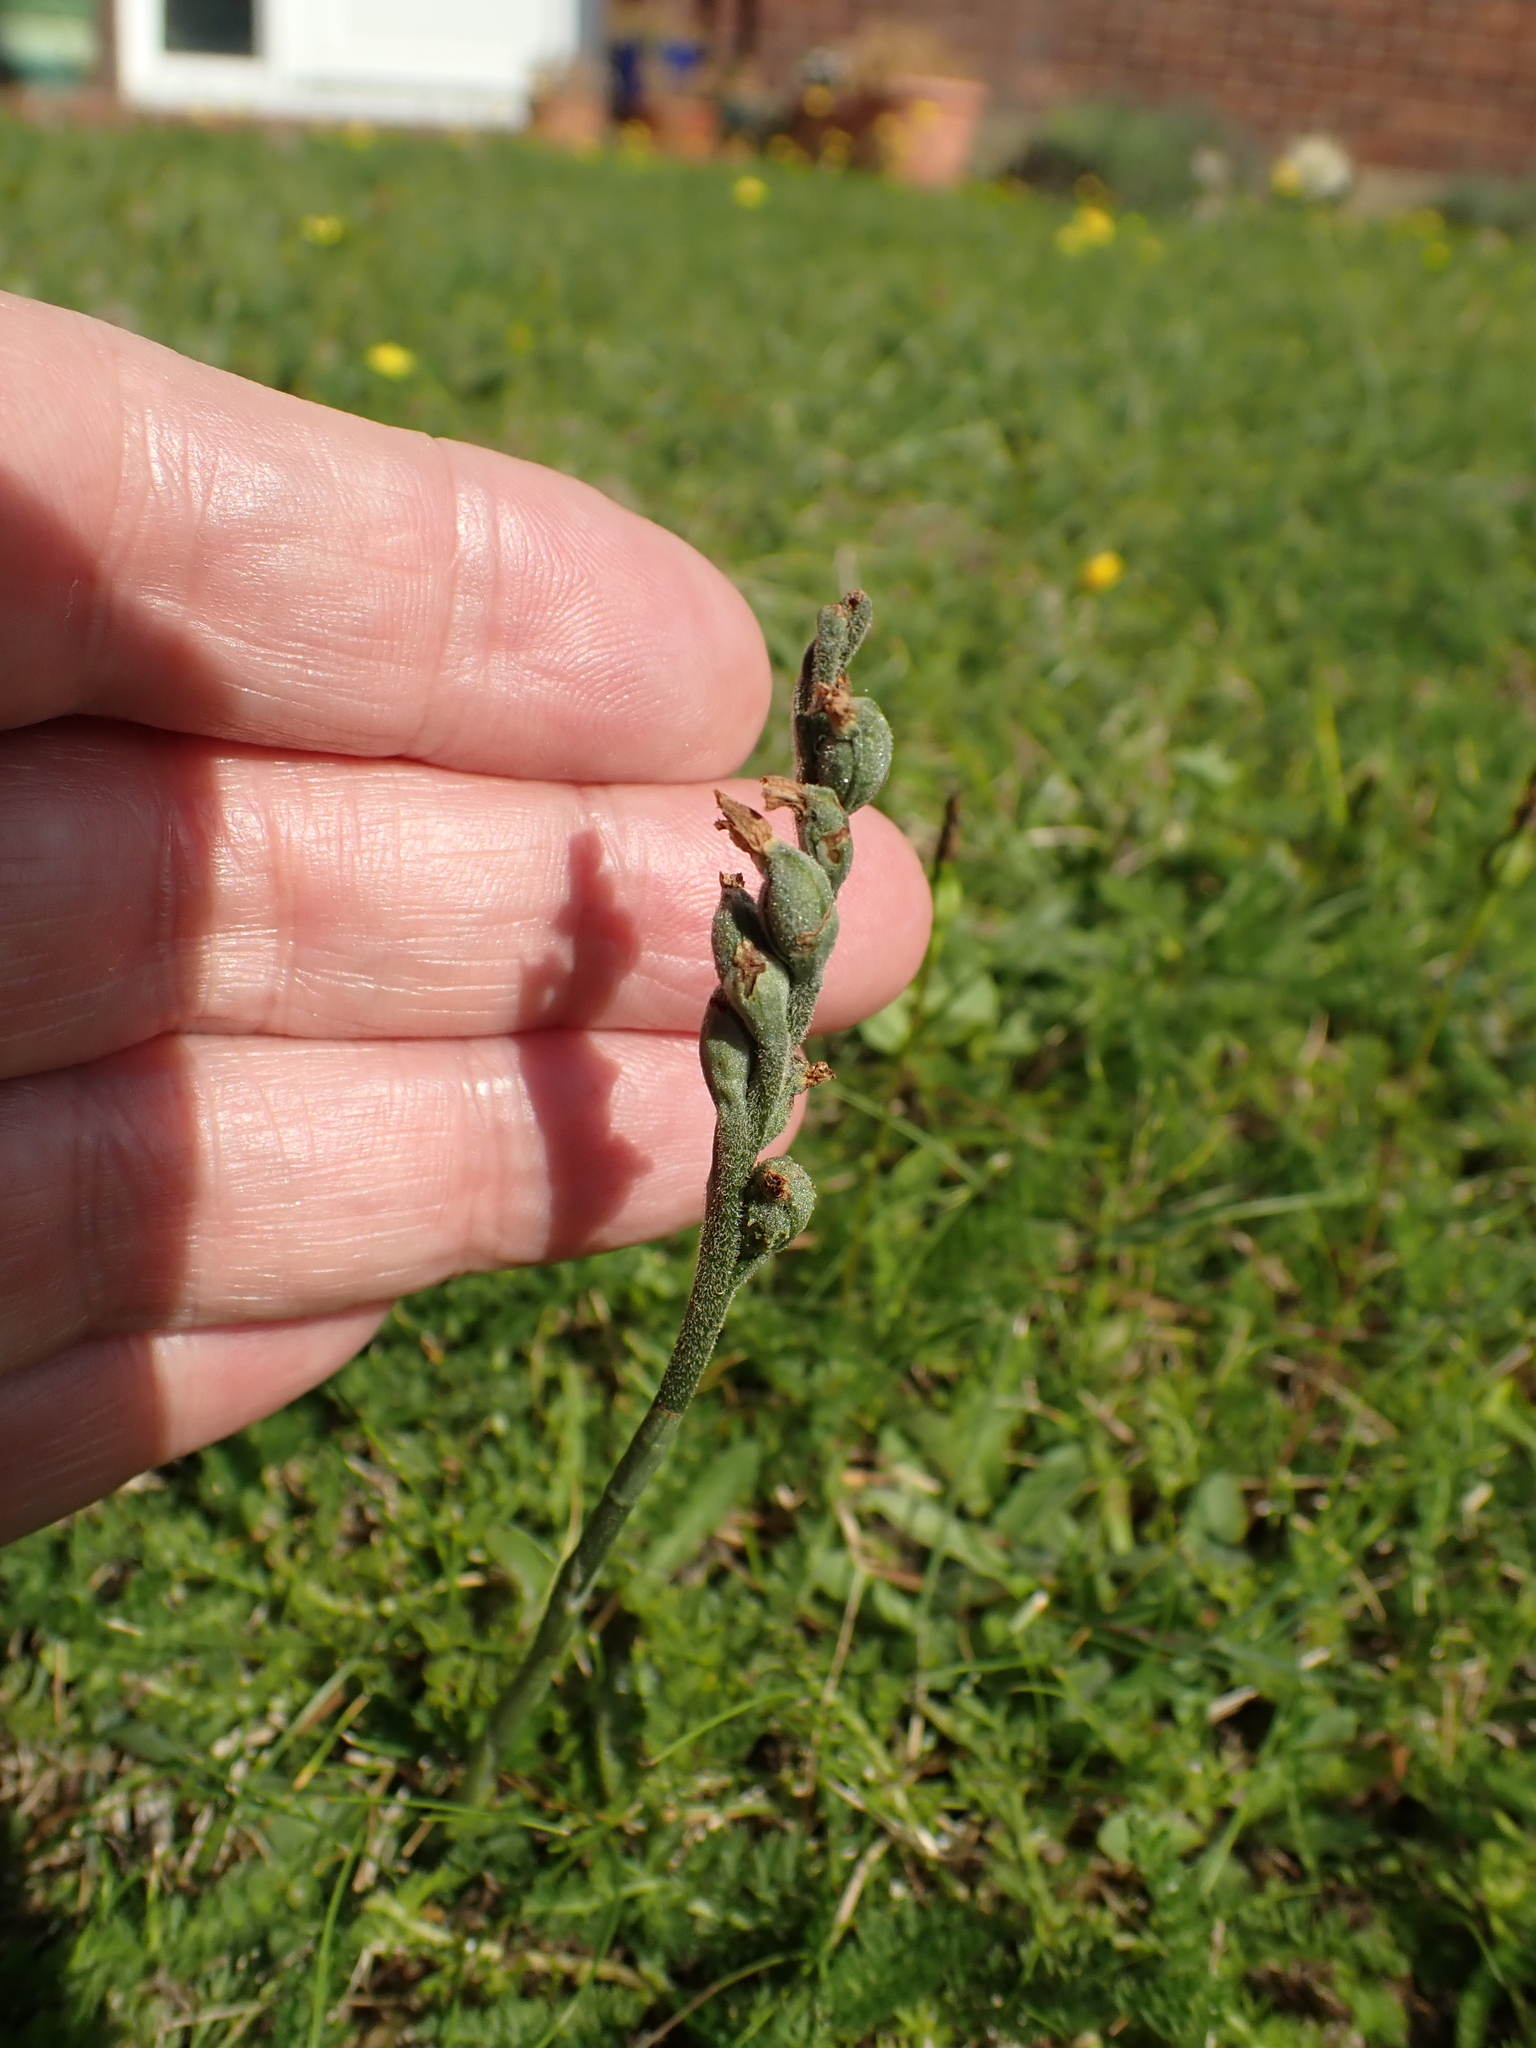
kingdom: Plantae
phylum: Tracheophyta
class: Liliopsida
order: Asparagales
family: Orchidaceae
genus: Spiranthes
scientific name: Spiranthes spiralis
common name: Autumn lady's-tresses
